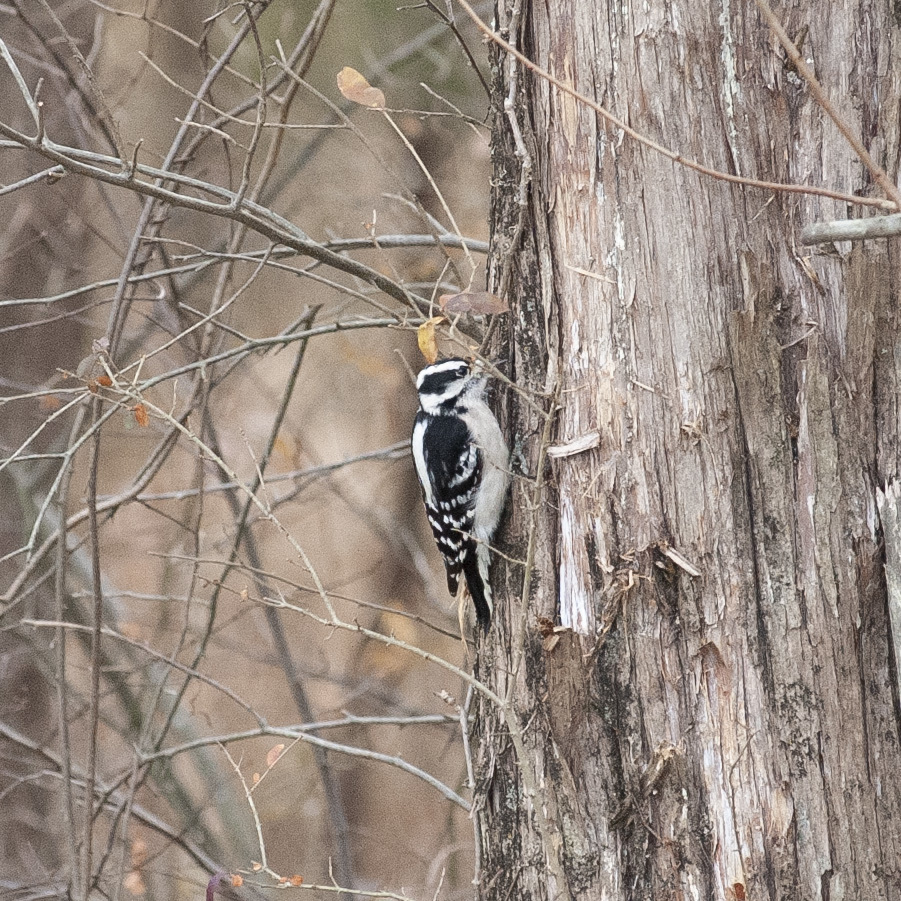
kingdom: Animalia
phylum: Chordata
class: Aves
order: Piciformes
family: Picidae
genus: Dryobates
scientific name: Dryobates pubescens
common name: Downy woodpecker
